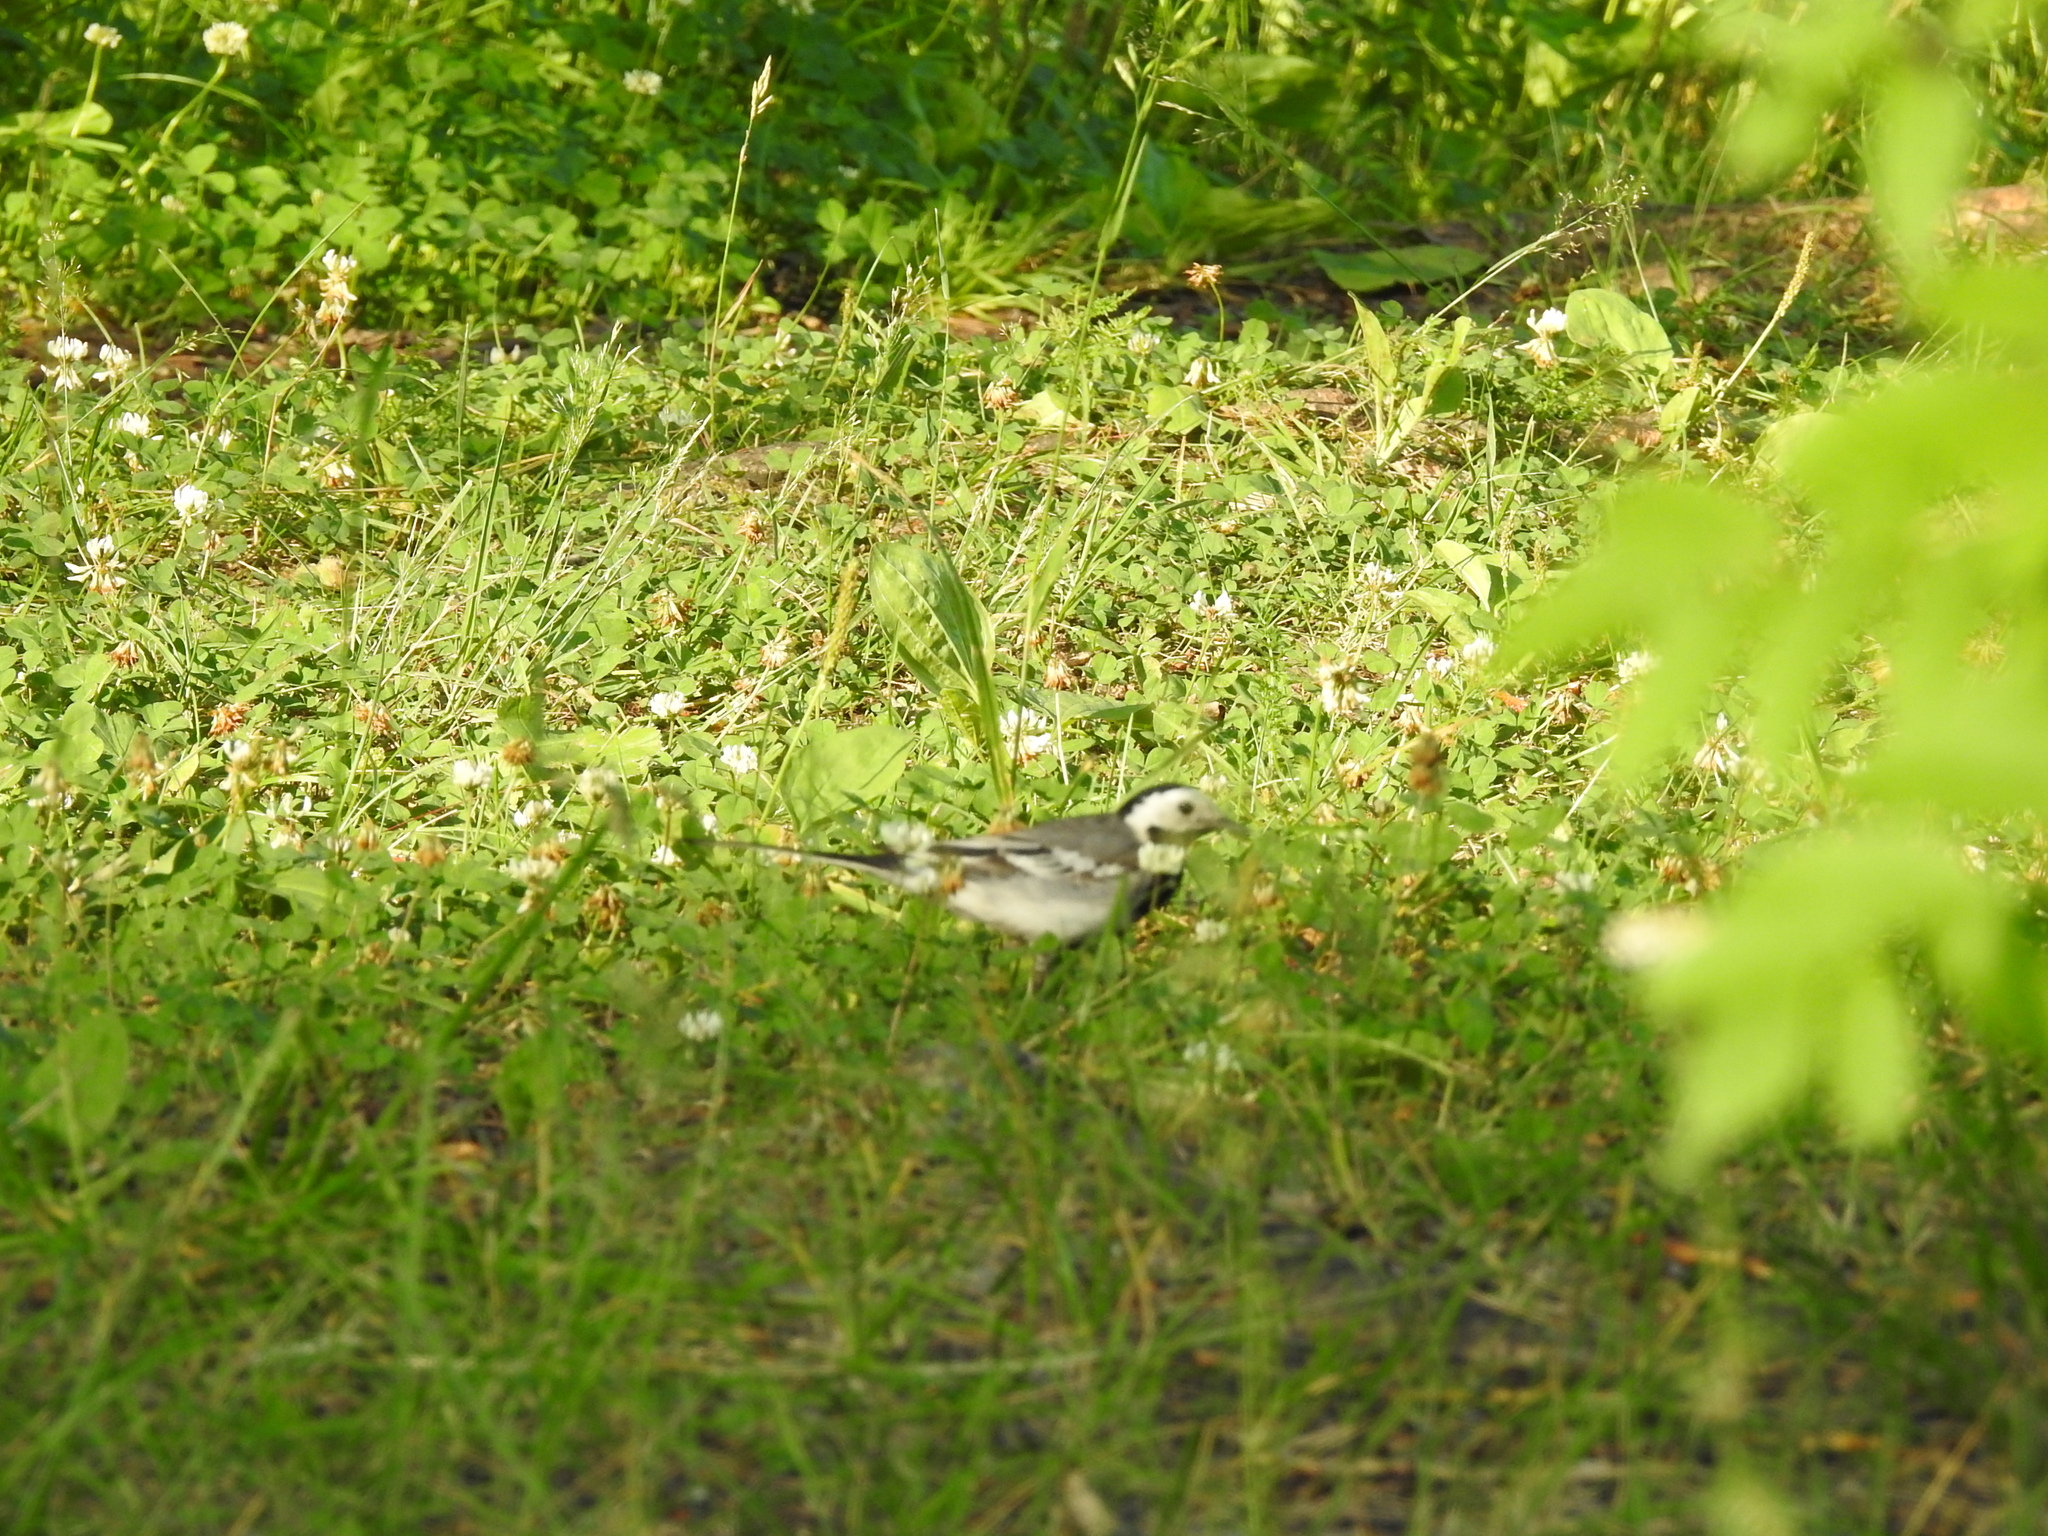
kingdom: Animalia
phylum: Chordata
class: Aves
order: Passeriformes
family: Motacillidae
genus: Motacilla
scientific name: Motacilla alba
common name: White wagtail
